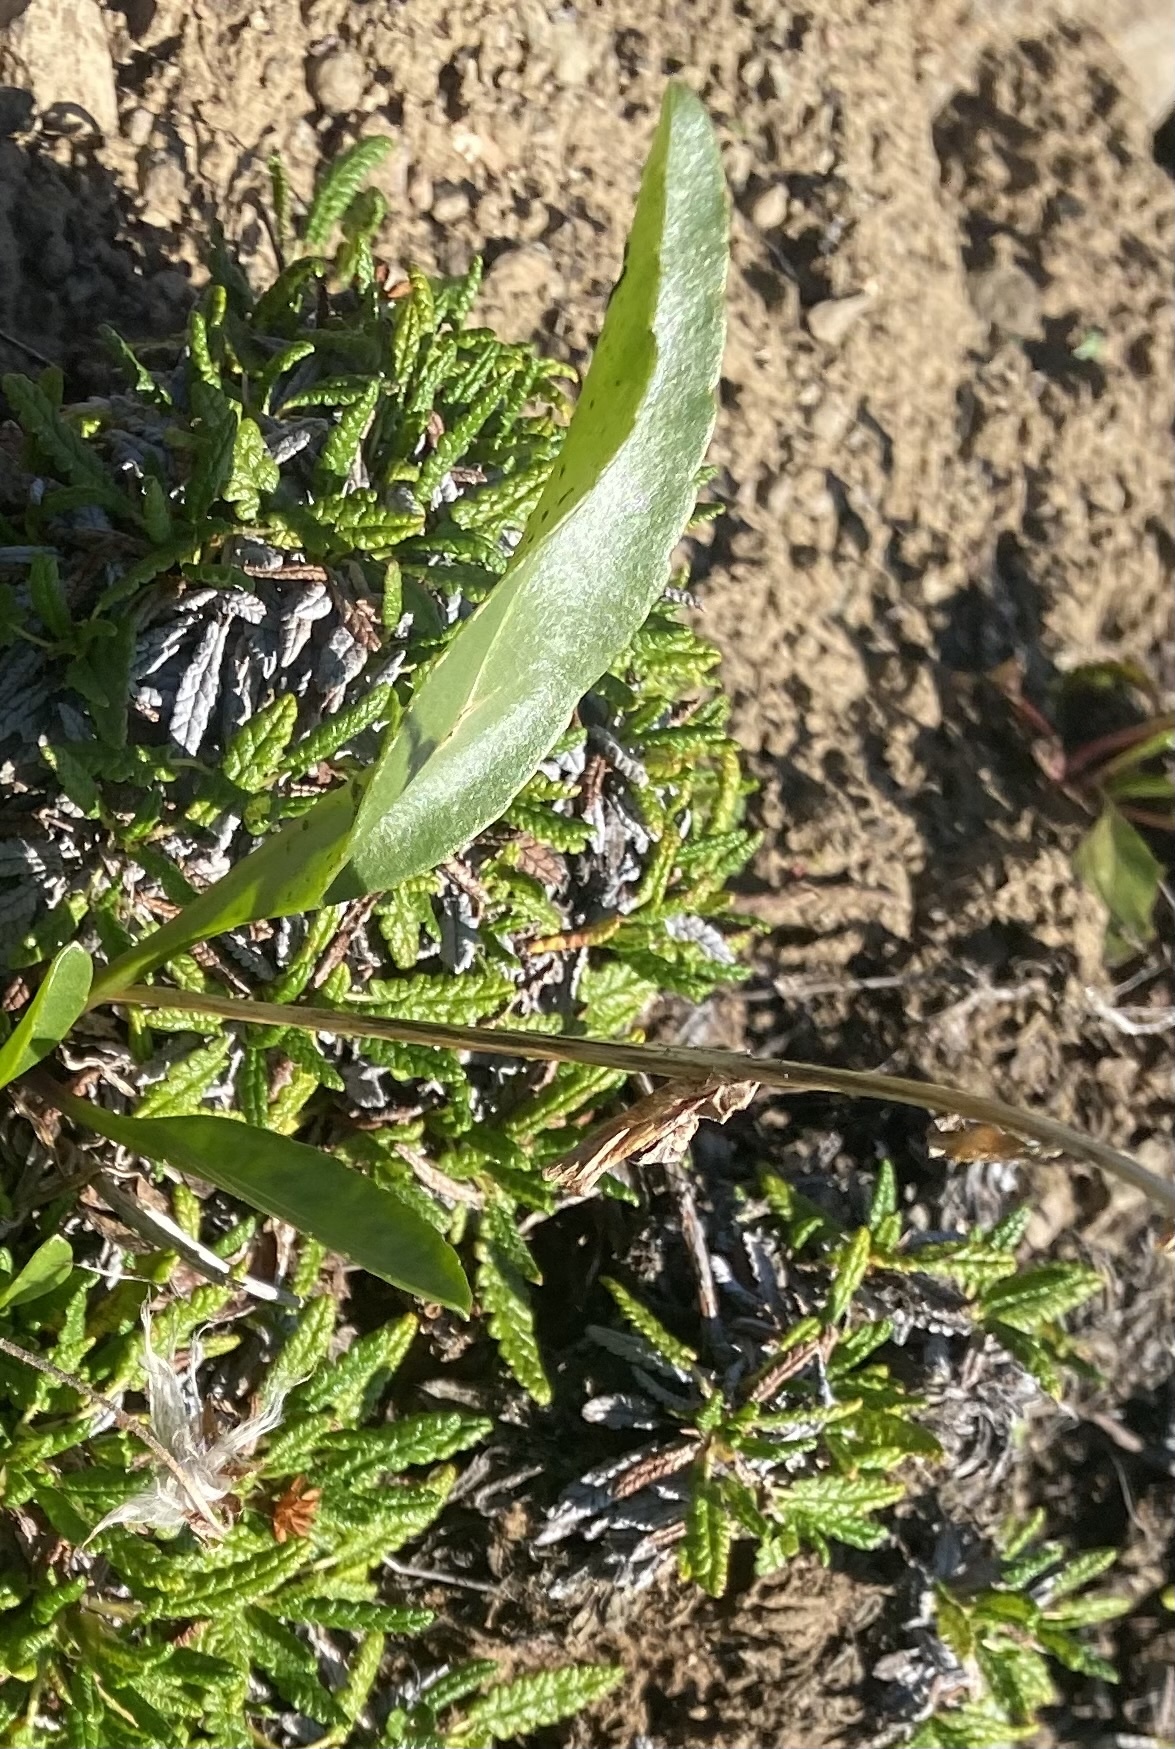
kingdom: Plantae
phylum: Tracheophyta
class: Magnoliopsida
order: Lamiales
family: Plantaginaceae
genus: Lagotis
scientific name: Lagotis glauca
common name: Glaucous weaselsnout
